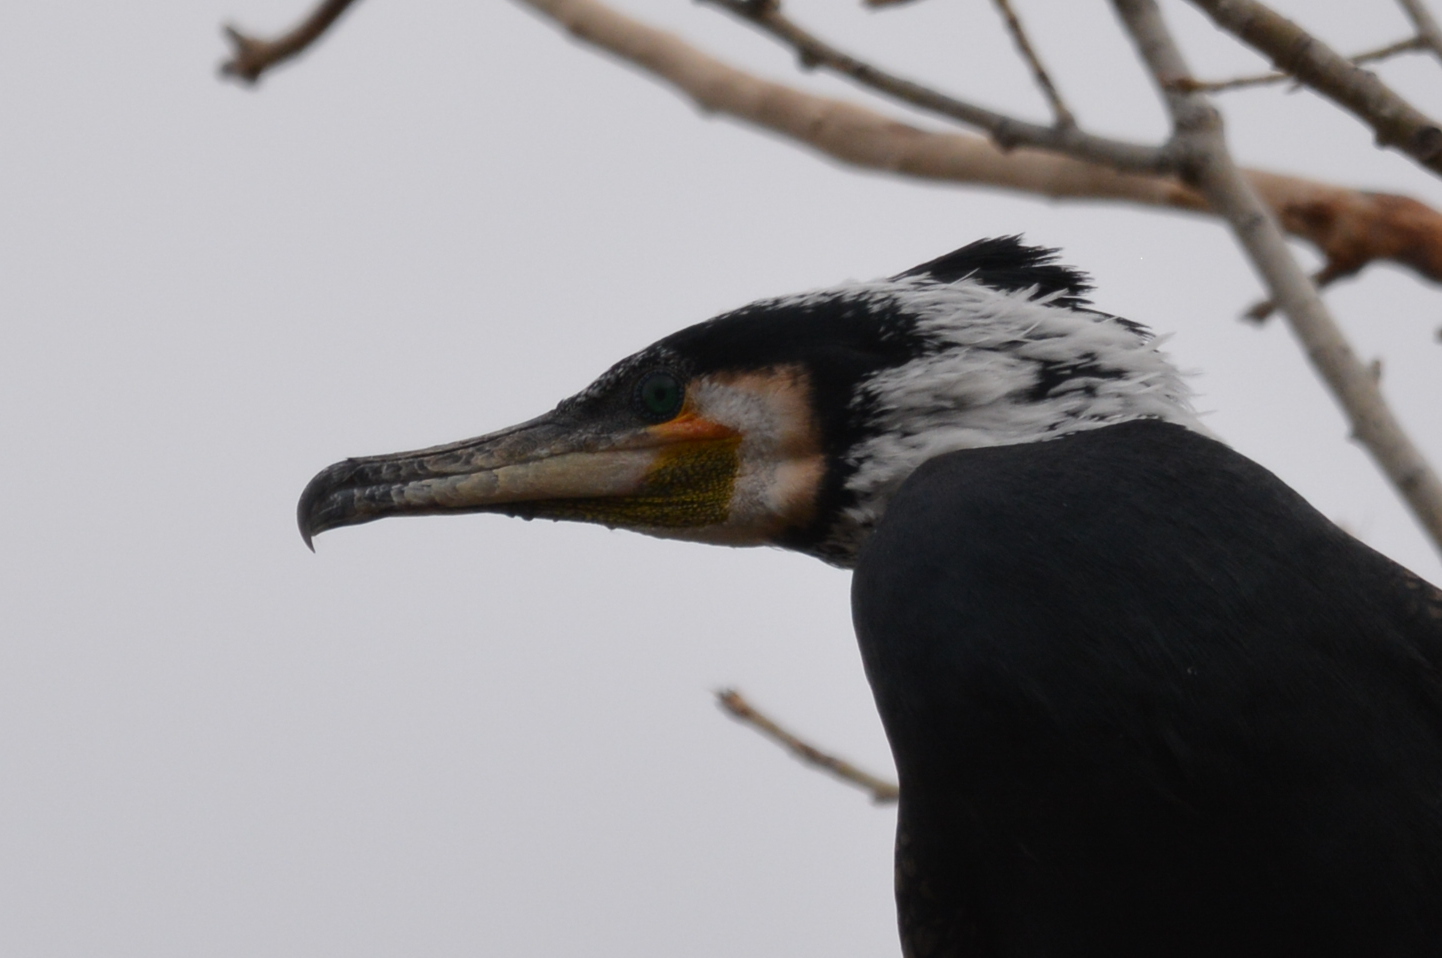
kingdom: Animalia
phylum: Chordata
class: Aves
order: Suliformes
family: Phalacrocoracidae
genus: Phalacrocorax
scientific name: Phalacrocorax carbo
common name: Great cormorant
